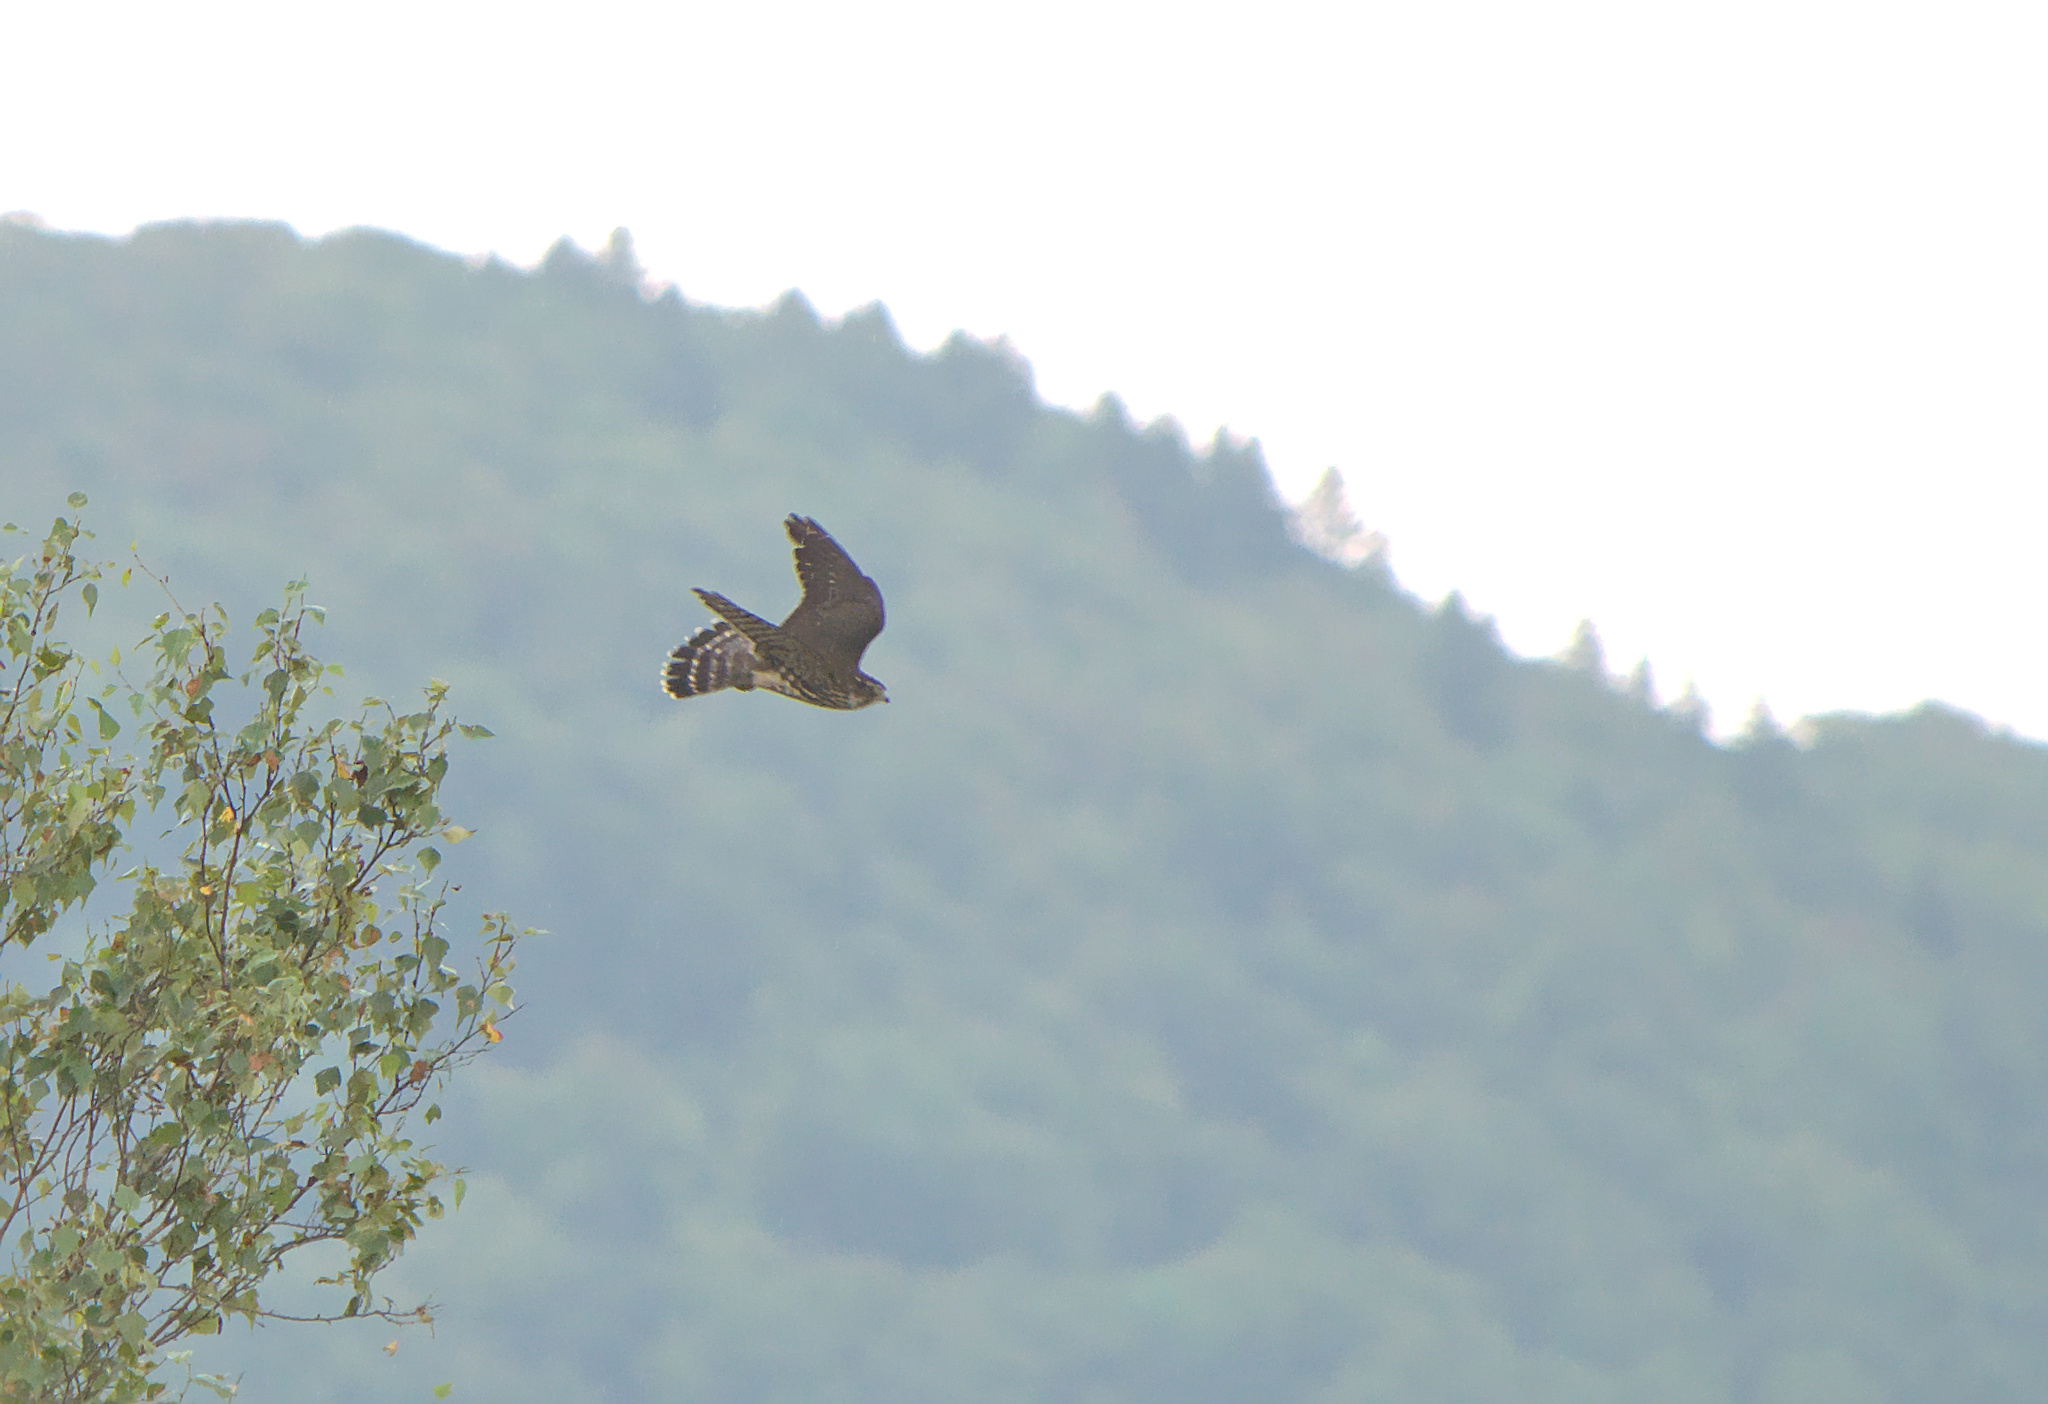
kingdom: Animalia
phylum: Chordata
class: Aves
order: Falconiformes
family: Falconidae
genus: Falco
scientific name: Falco columbarius
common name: Merlin
